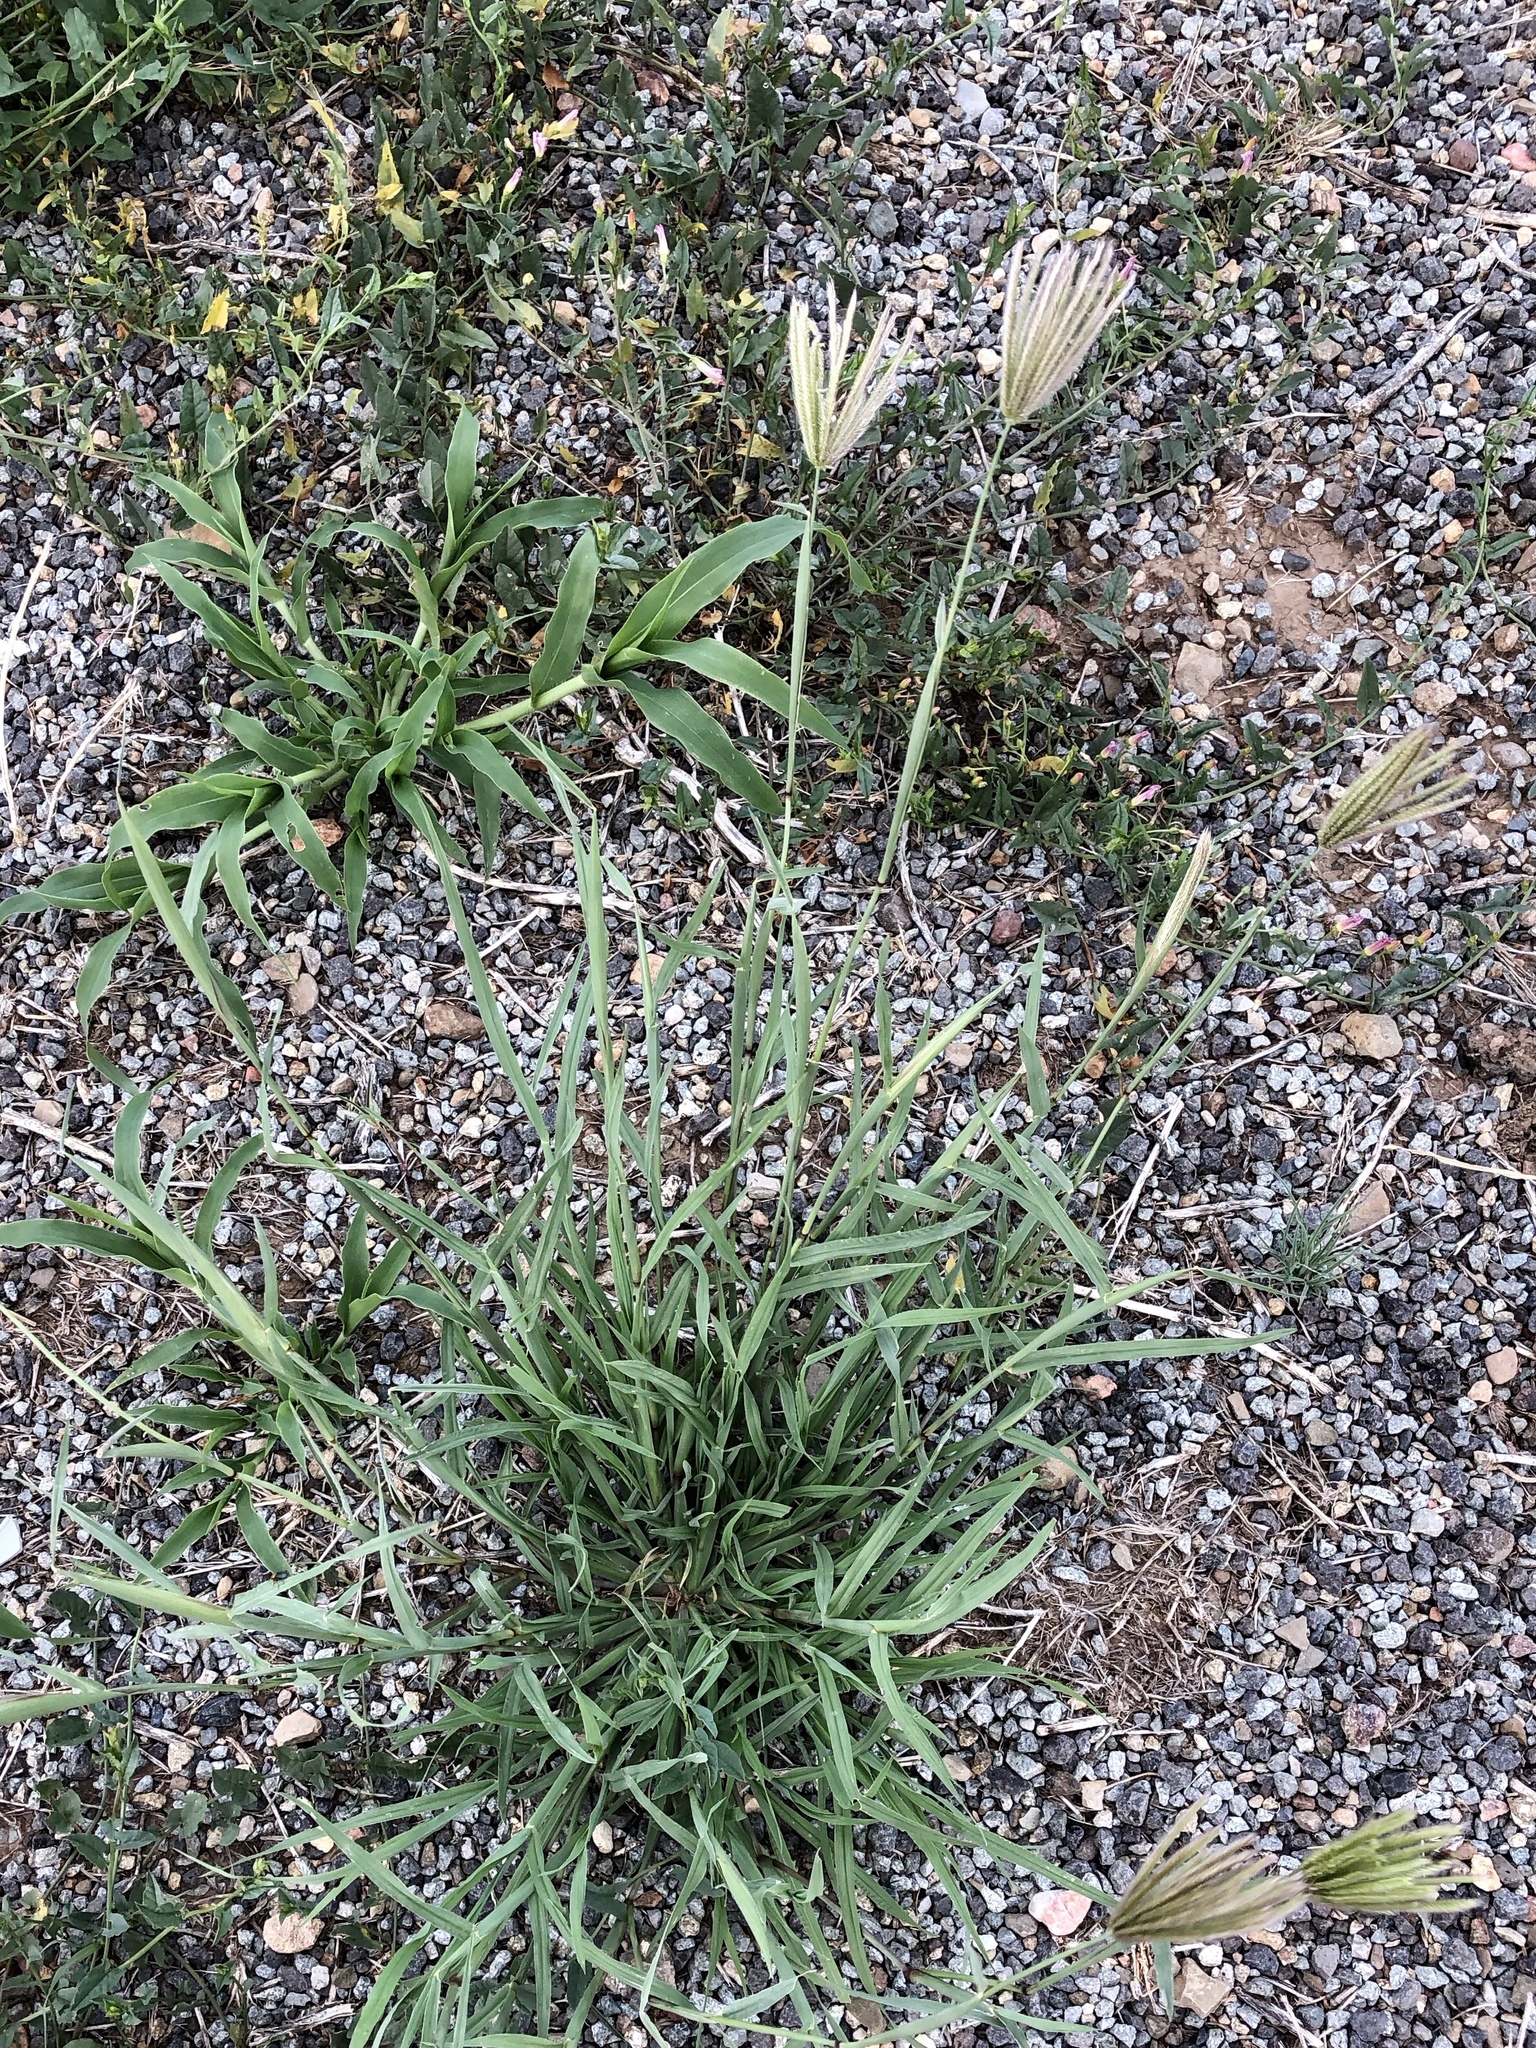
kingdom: Plantae
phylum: Tracheophyta
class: Liliopsida
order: Poales
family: Poaceae
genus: Chloris
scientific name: Chloris virgata
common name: Feathery rhodes-grass
